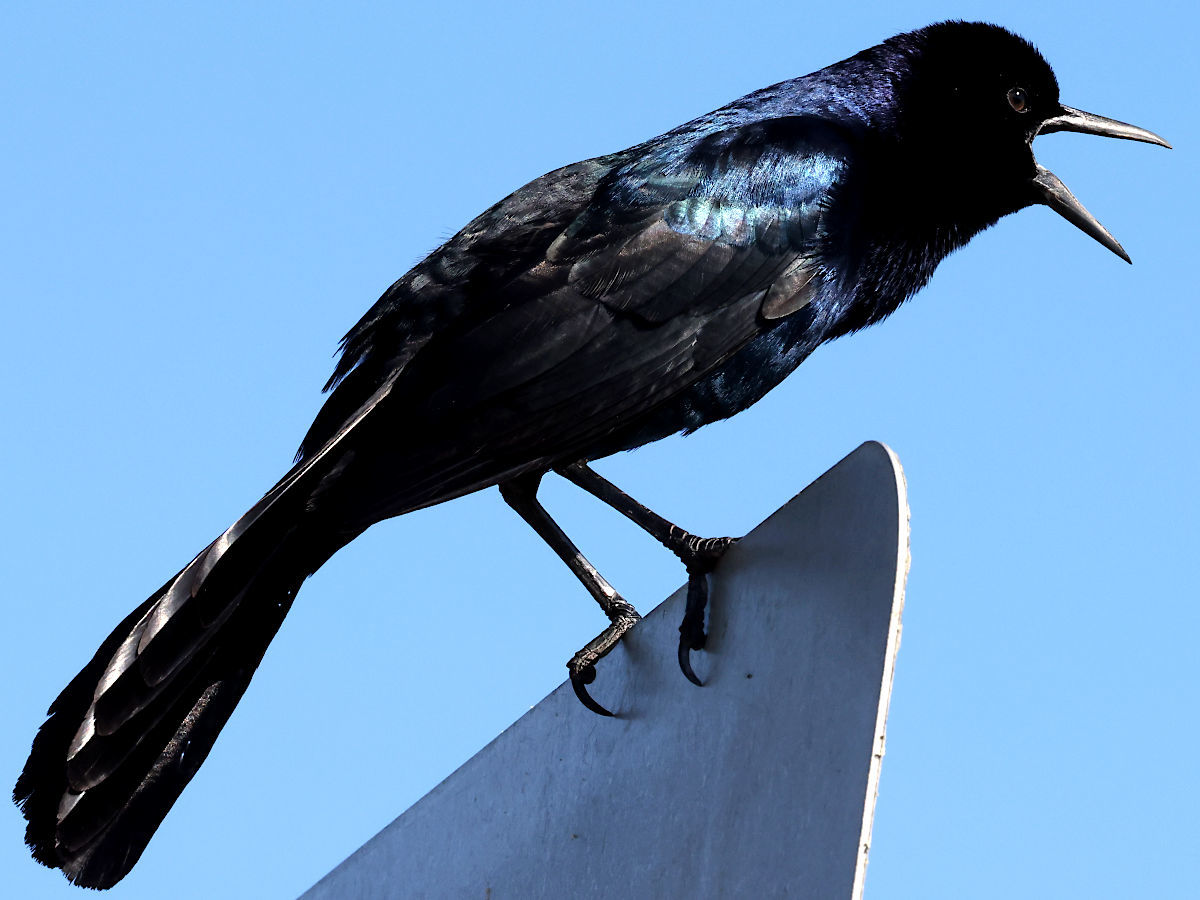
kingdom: Animalia
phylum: Chordata
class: Aves
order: Passeriformes
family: Icteridae
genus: Quiscalus
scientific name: Quiscalus major
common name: Boat-tailed grackle
